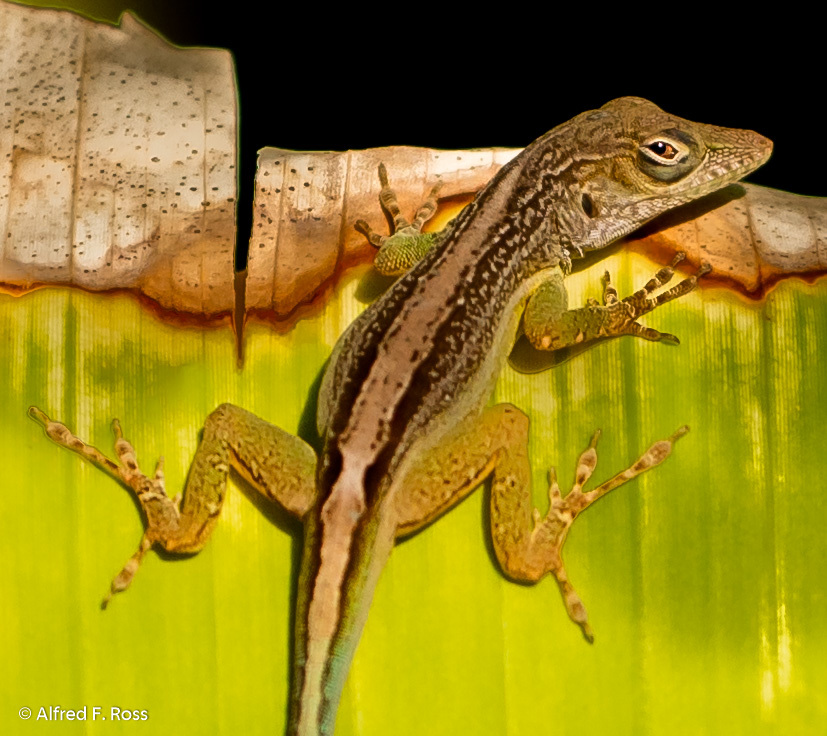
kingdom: Animalia
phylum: Chordata
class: Squamata
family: Dactyloidae
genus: Anolis
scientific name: Anolis grahami
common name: Graham's anole
